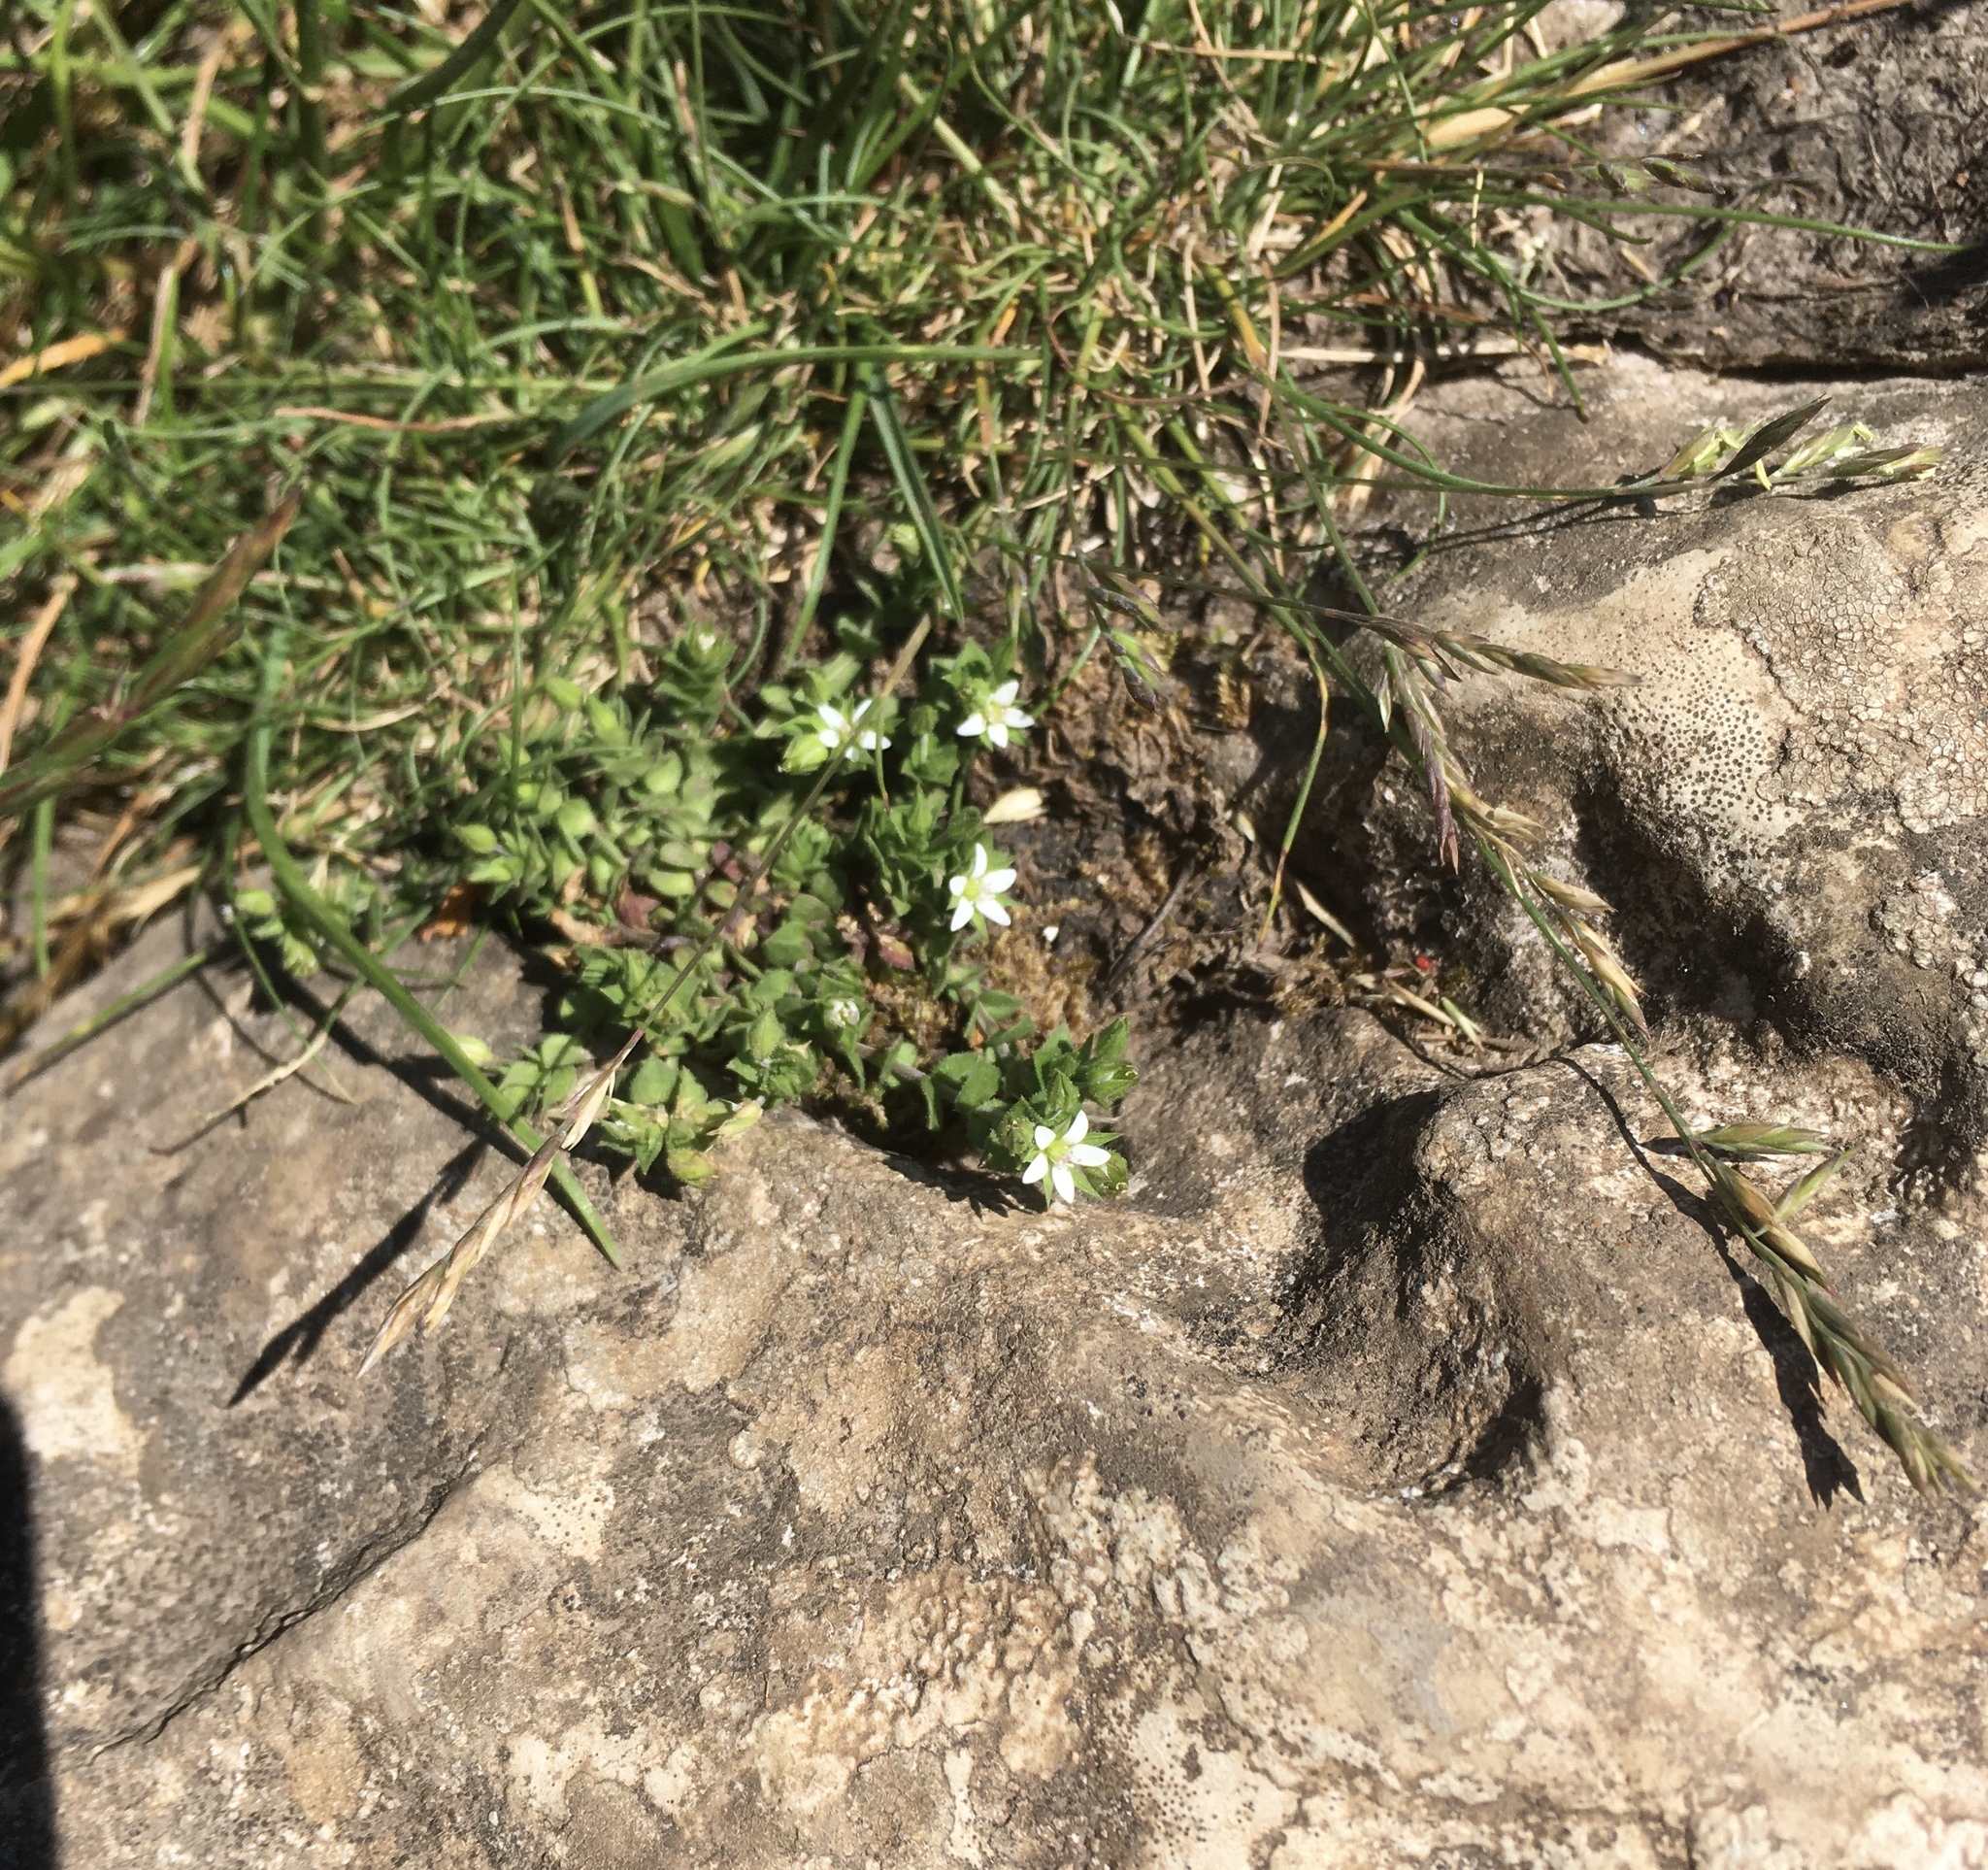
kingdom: Plantae
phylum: Tracheophyta
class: Magnoliopsida
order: Caryophyllales
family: Caryophyllaceae
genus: Arenaria
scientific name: Arenaria serpyllifolia
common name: Thyme-leaved sandwort
